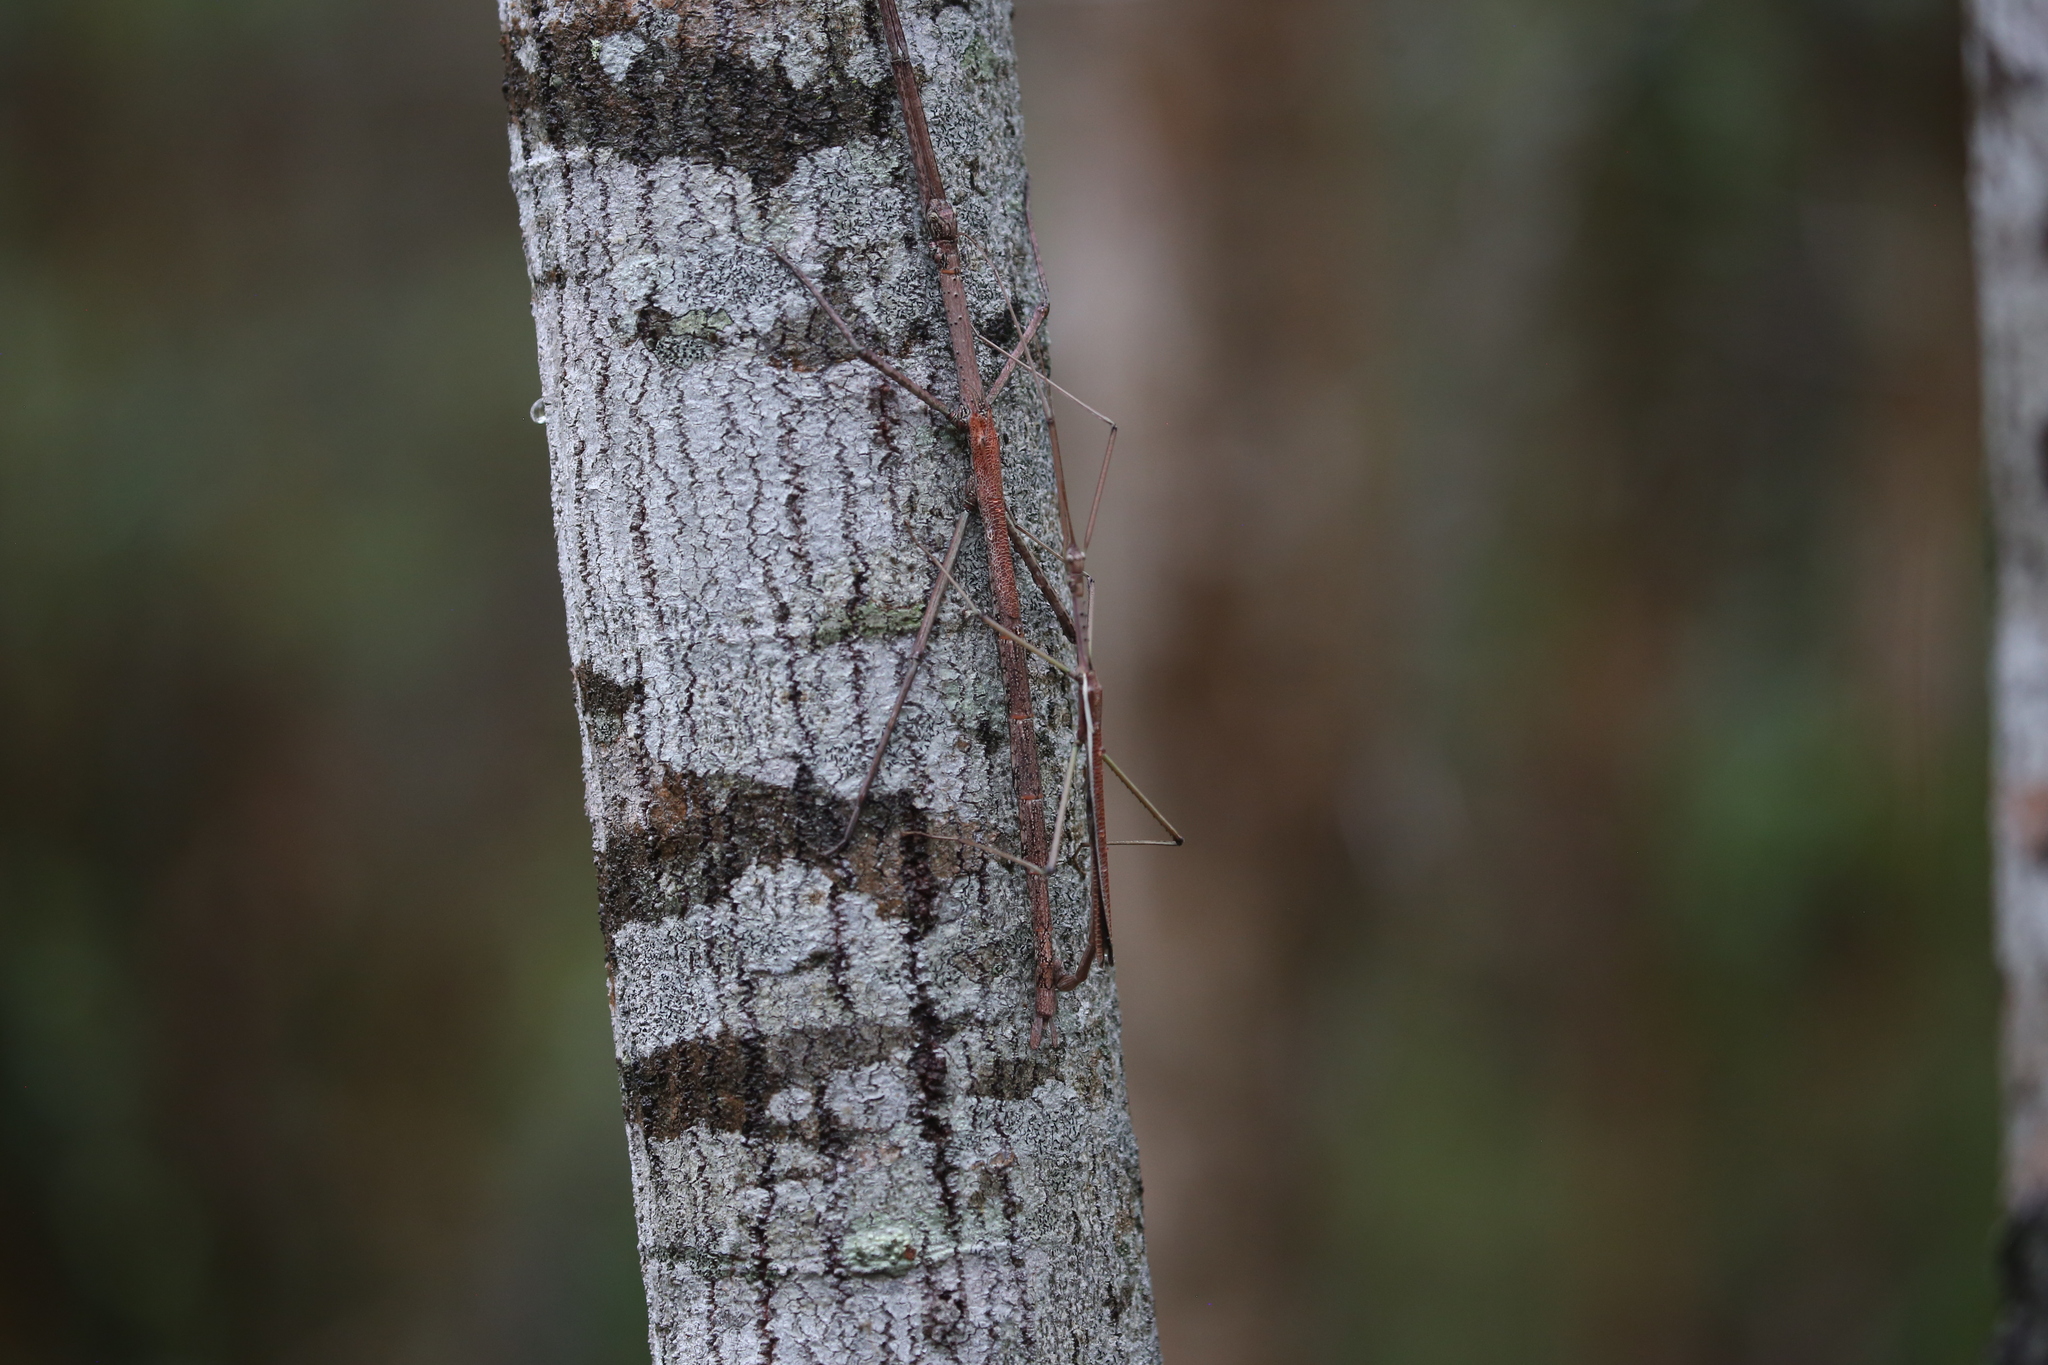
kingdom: Animalia
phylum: Arthropoda
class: Insecta
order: Phasmida
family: Phasmatidae
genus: Anchiale
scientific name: Anchiale austrotessulata
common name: Tessellated stick-insect
